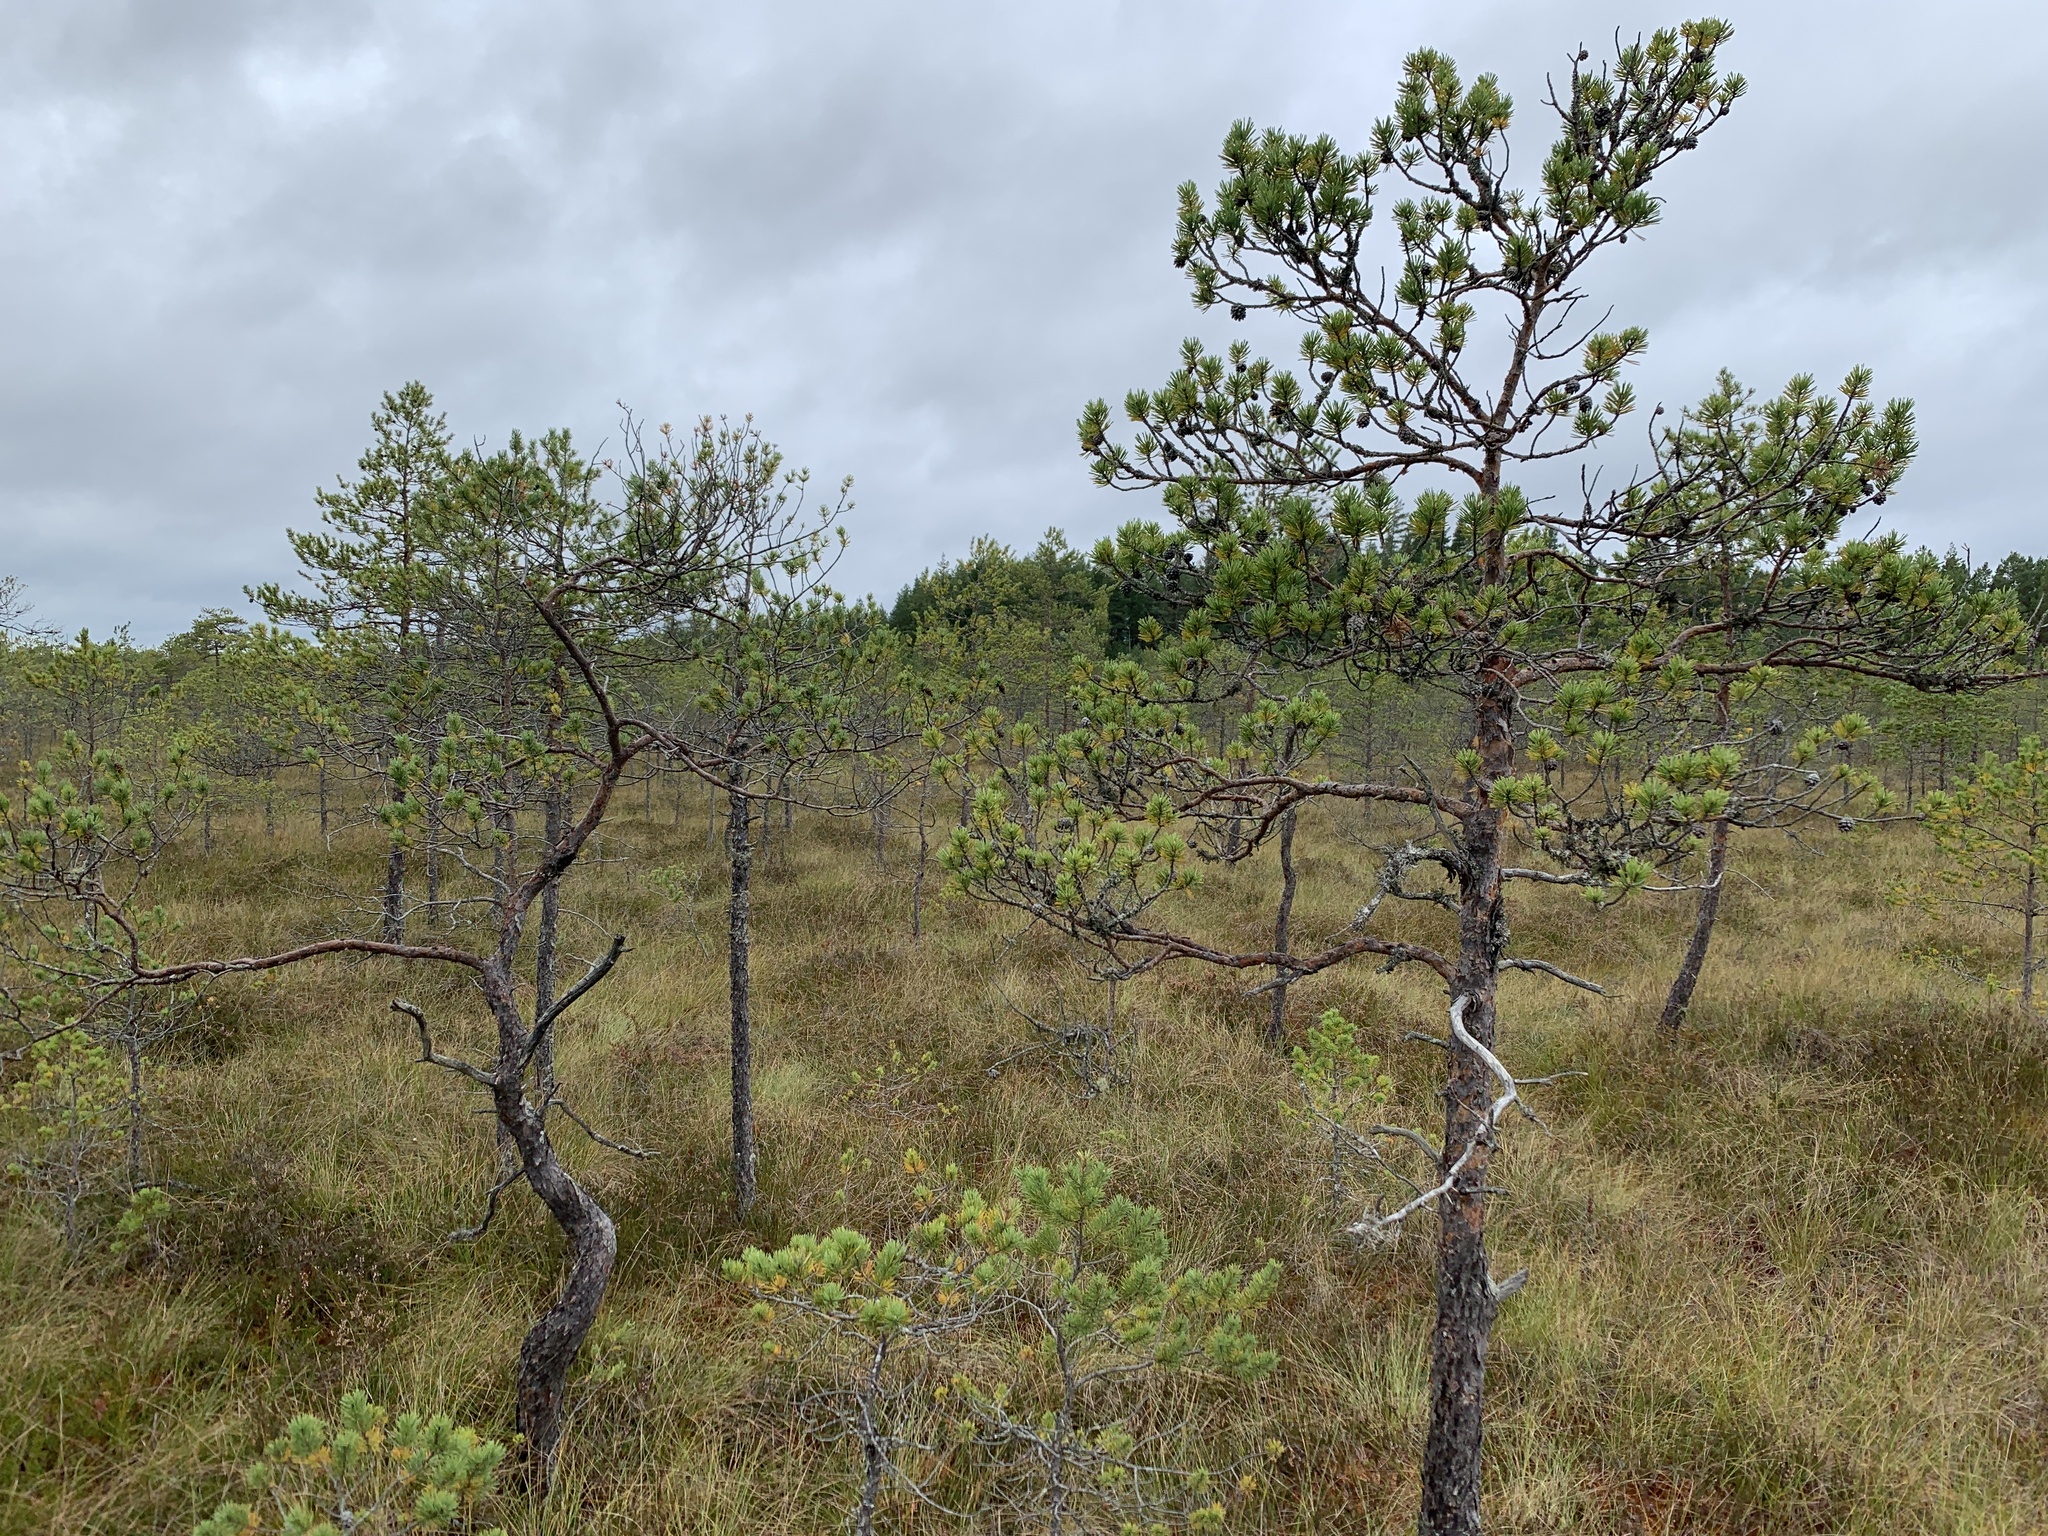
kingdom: Plantae
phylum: Tracheophyta
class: Pinopsida
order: Pinales
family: Pinaceae
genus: Pinus
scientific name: Pinus sylvestris
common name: Scots pine
